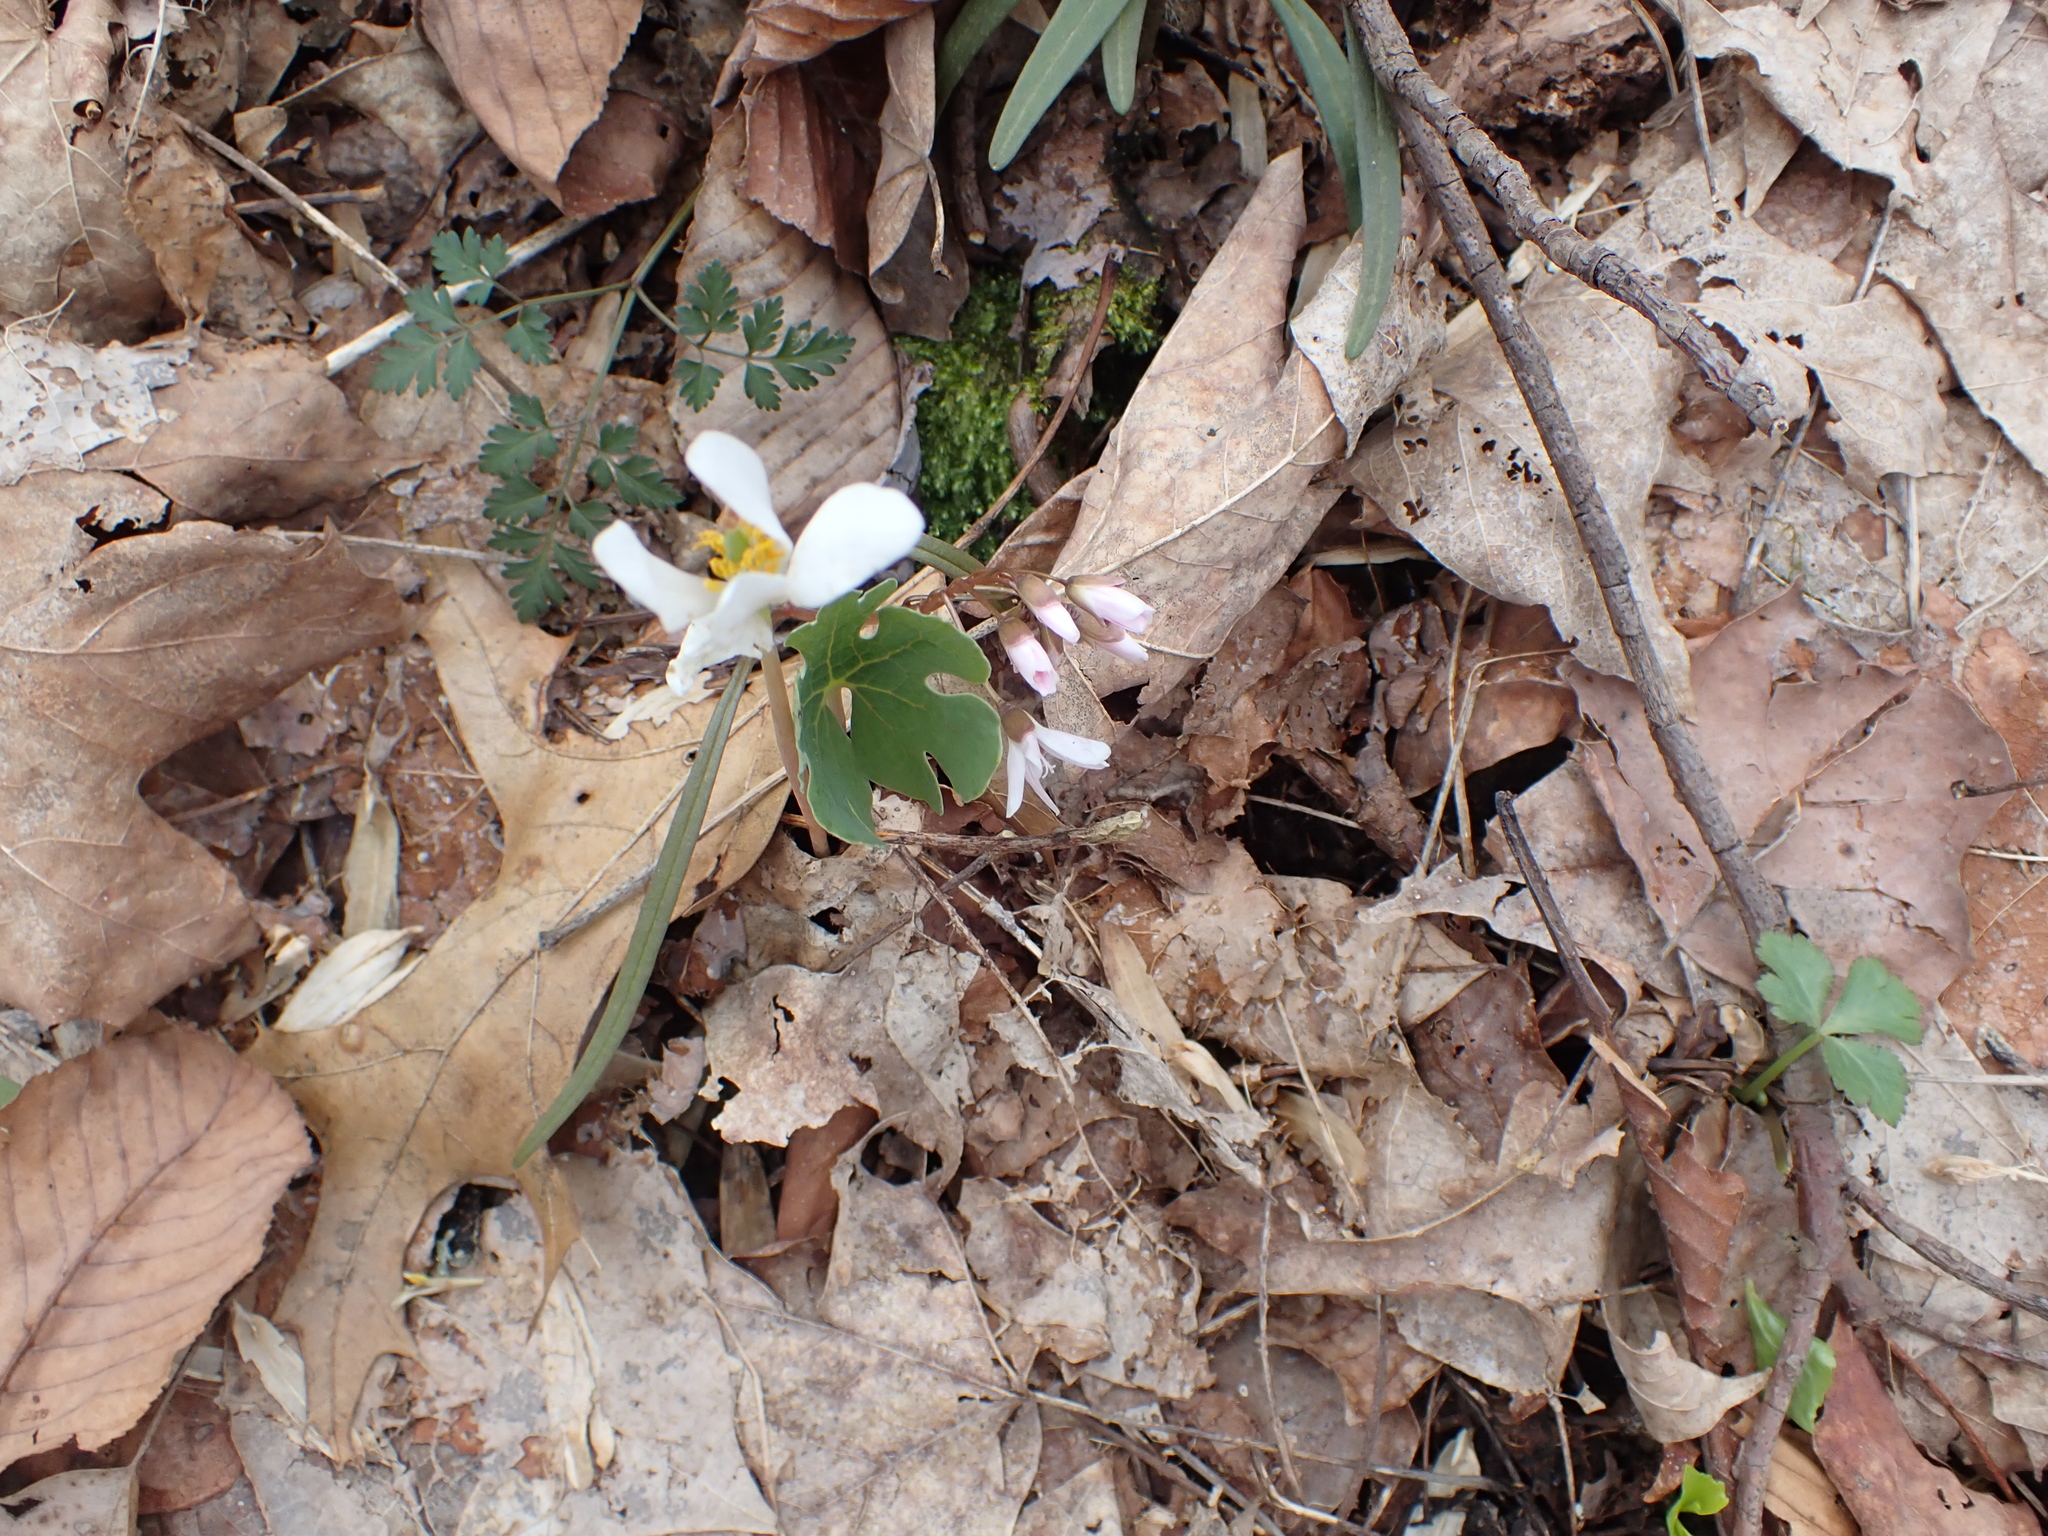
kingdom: Plantae
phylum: Tracheophyta
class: Magnoliopsida
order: Ranunculales
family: Papaveraceae
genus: Sanguinaria
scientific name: Sanguinaria canadensis
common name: Bloodroot
